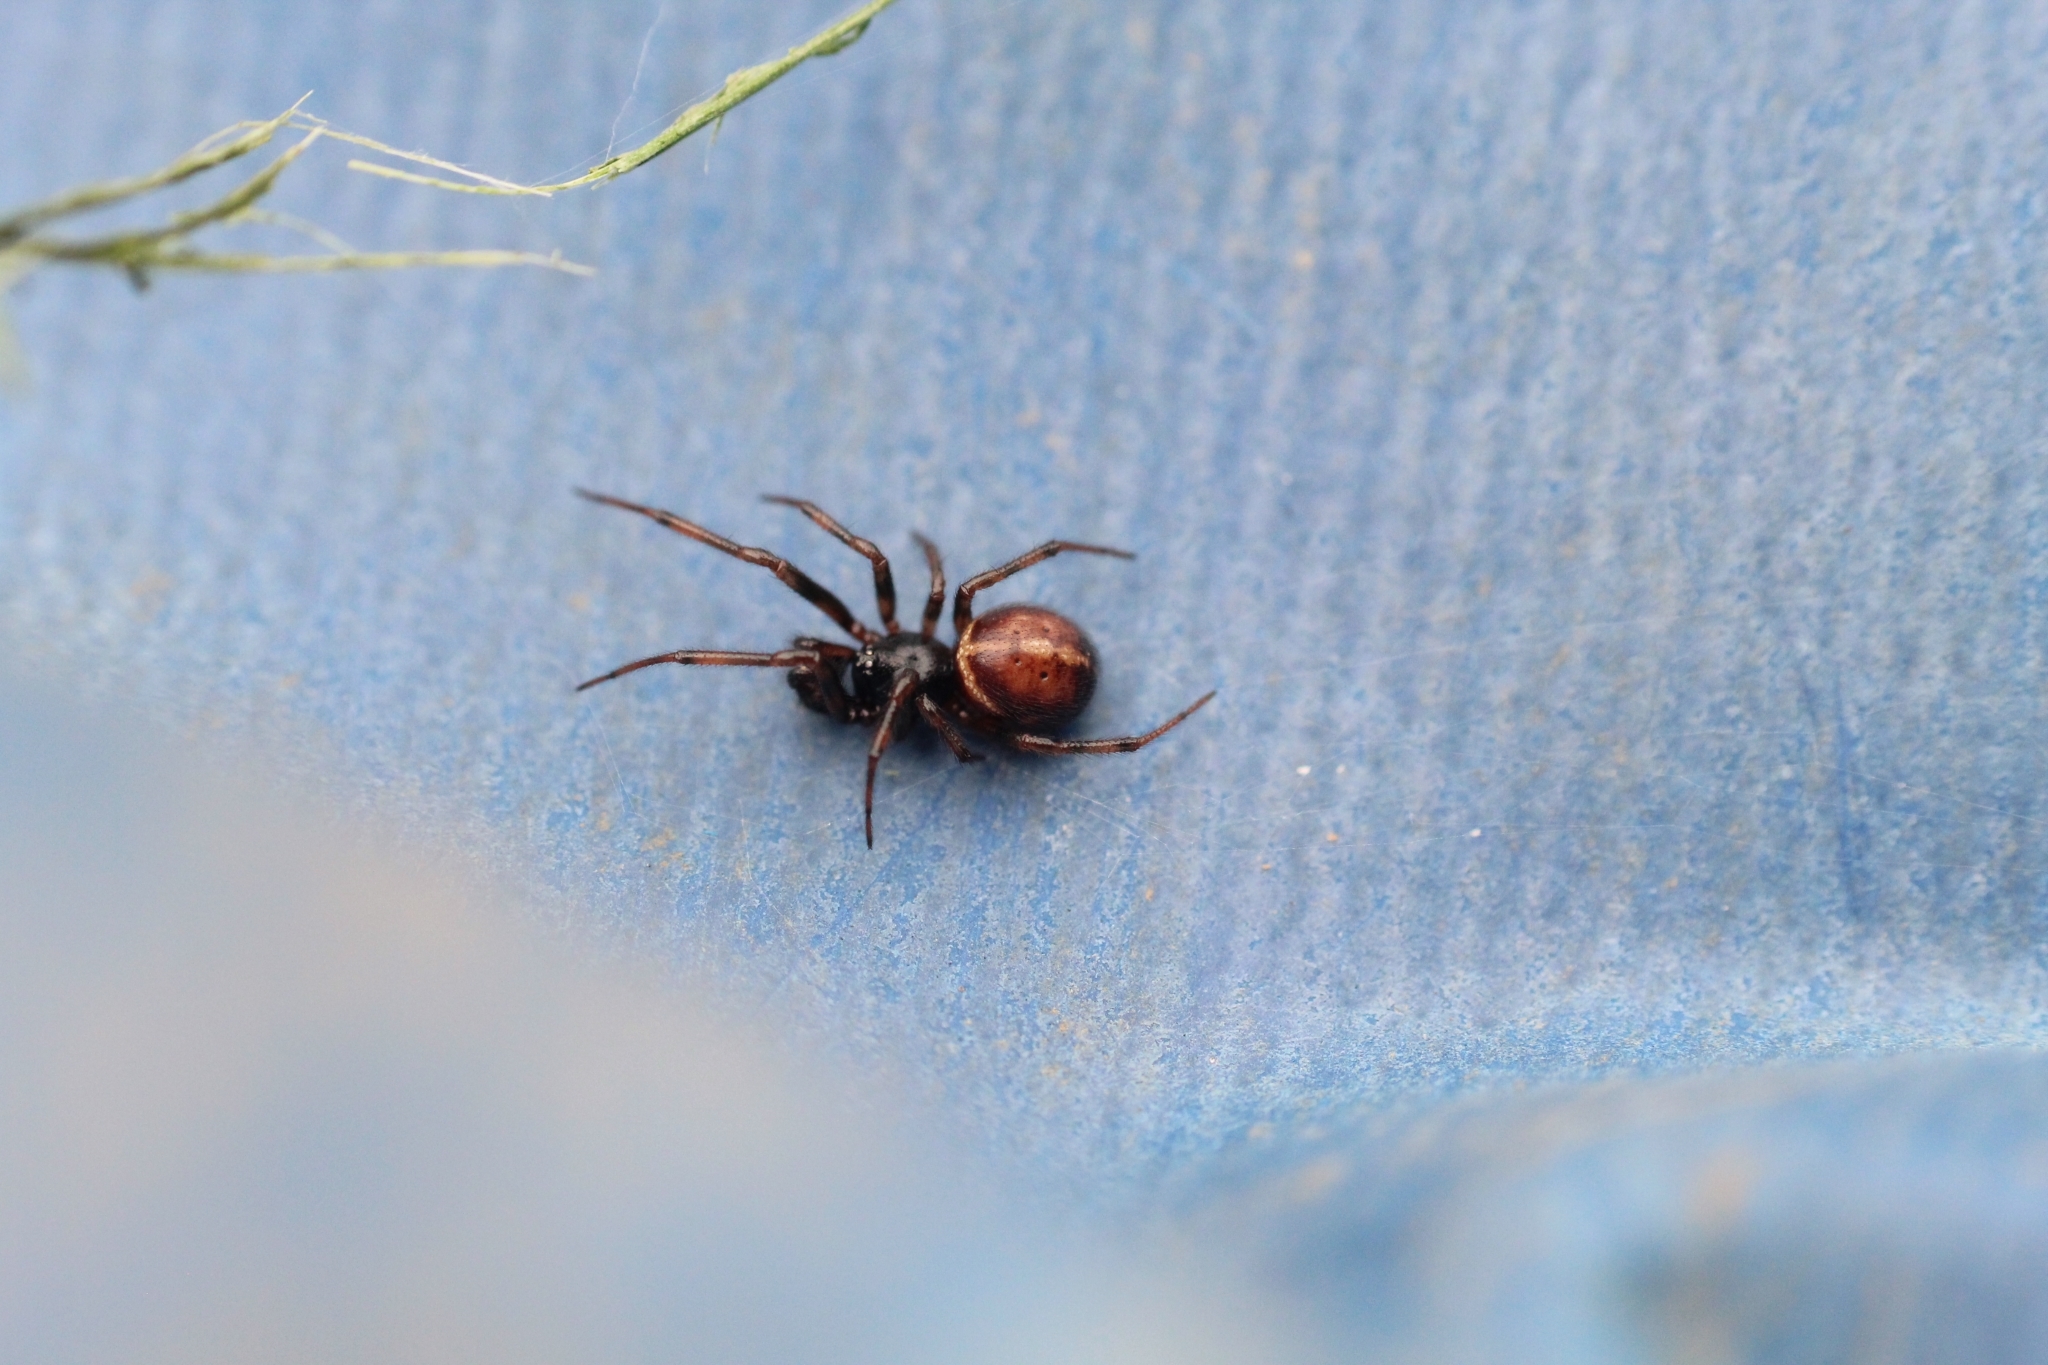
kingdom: Animalia
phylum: Arthropoda
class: Arachnida
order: Araneae
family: Theridiidae
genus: Steatoda
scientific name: Steatoda bipunctata
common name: False widow
